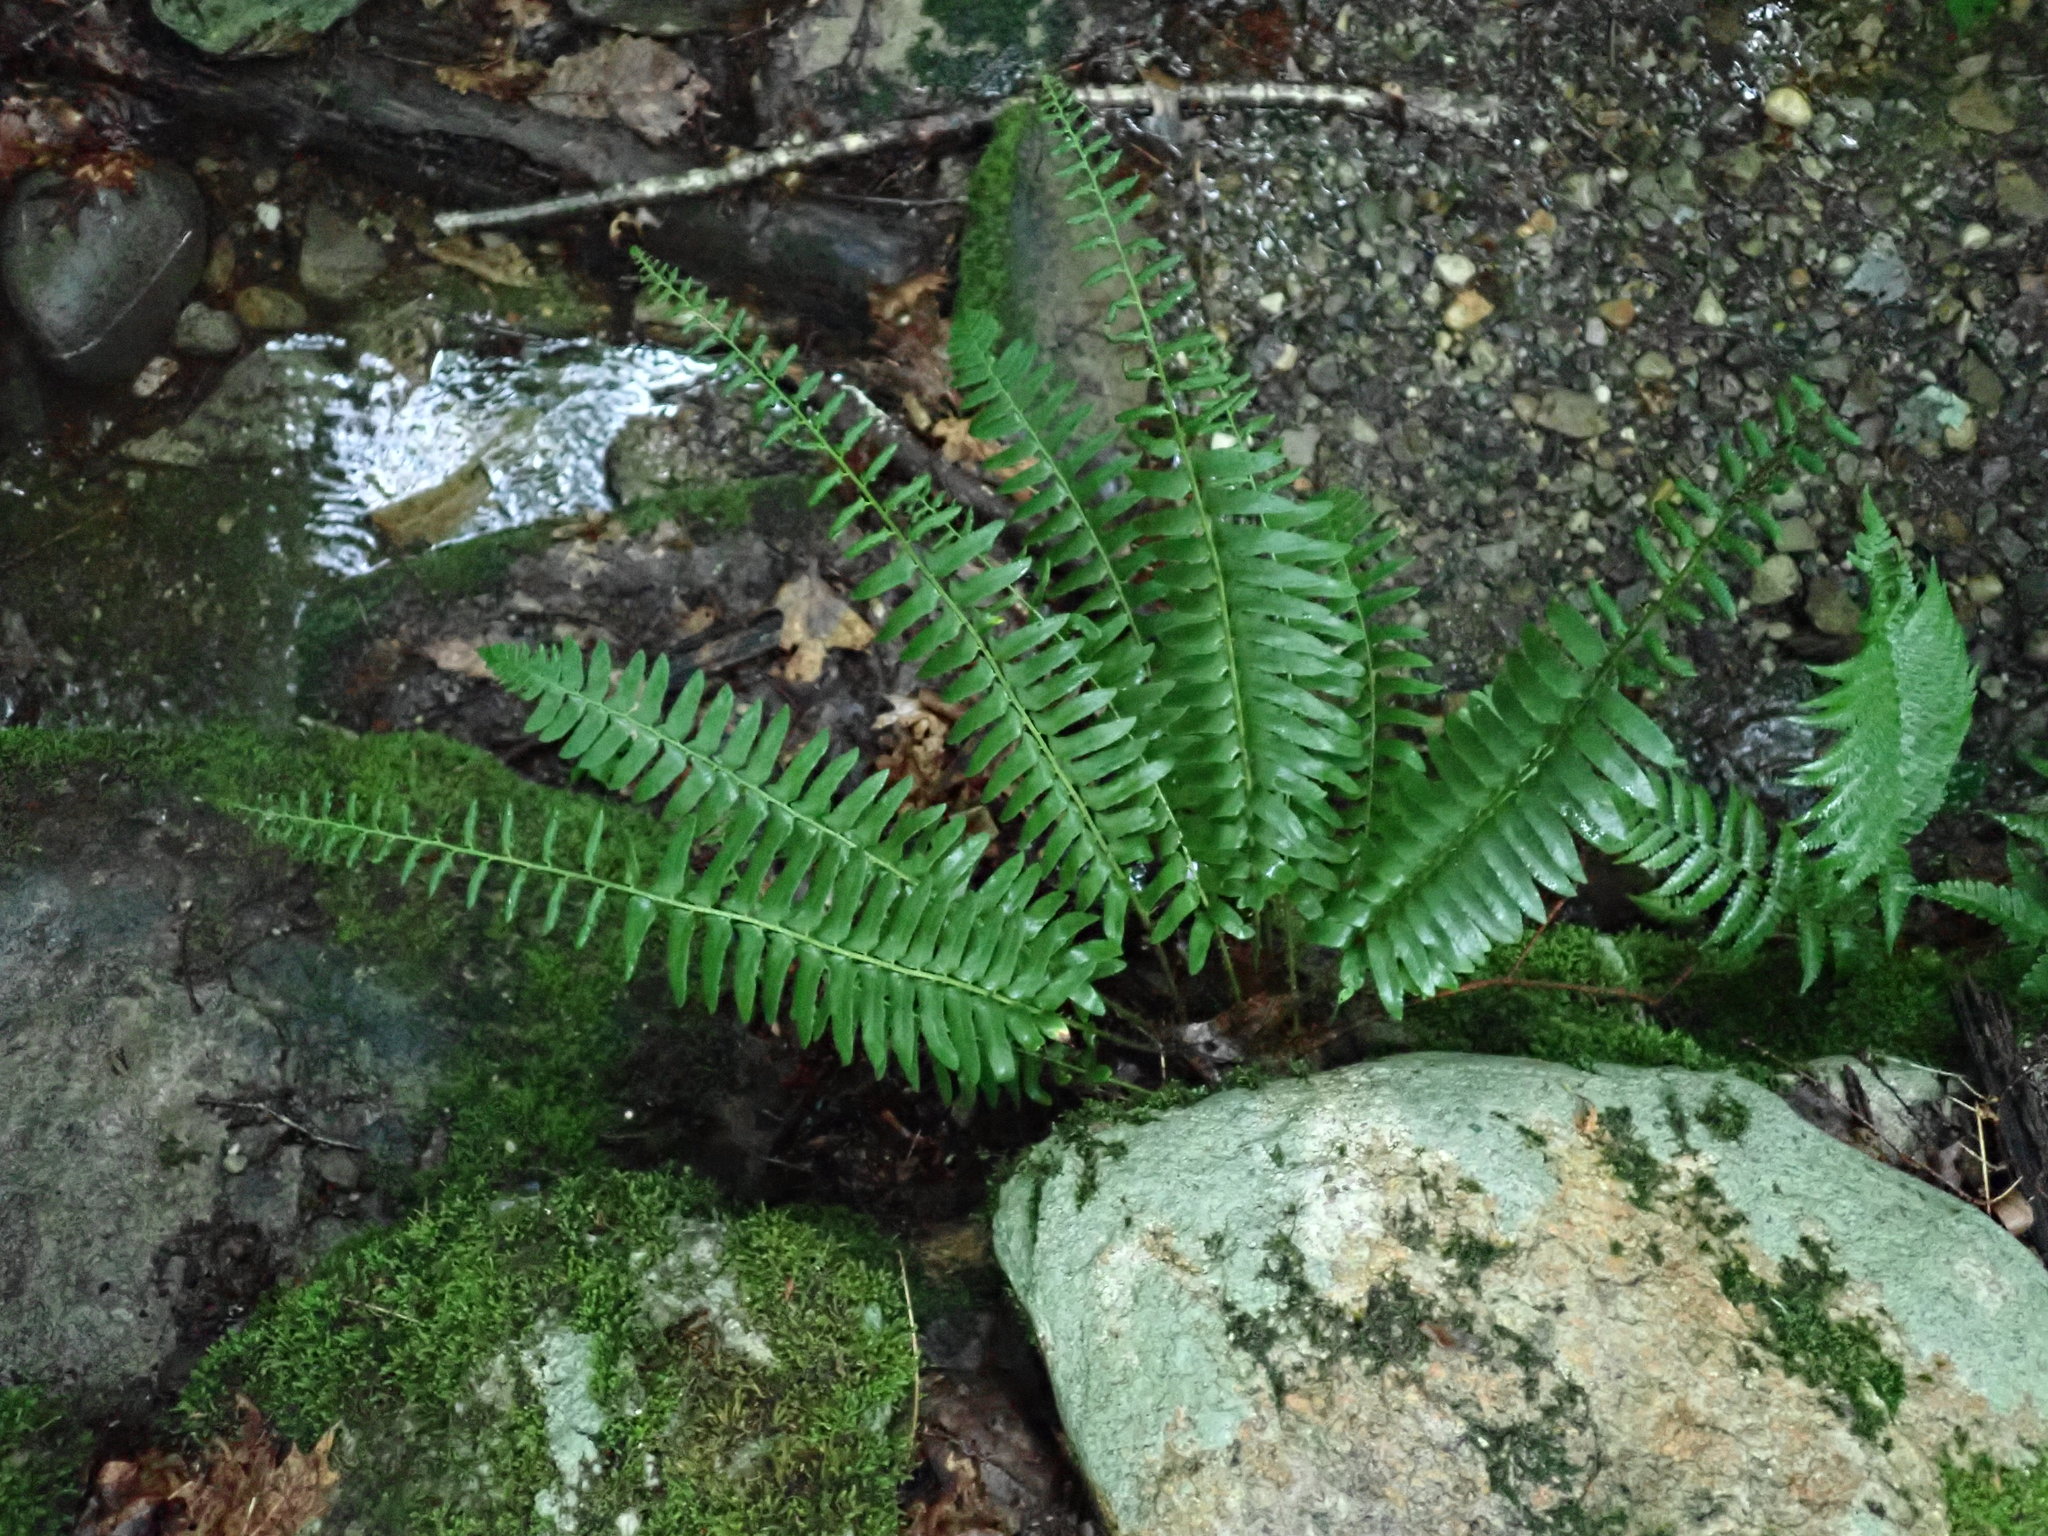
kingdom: Plantae
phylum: Tracheophyta
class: Polypodiopsida
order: Polypodiales
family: Dryopteridaceae
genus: Polystichum
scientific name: Polystichum acrostichoides
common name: Christmas fern
